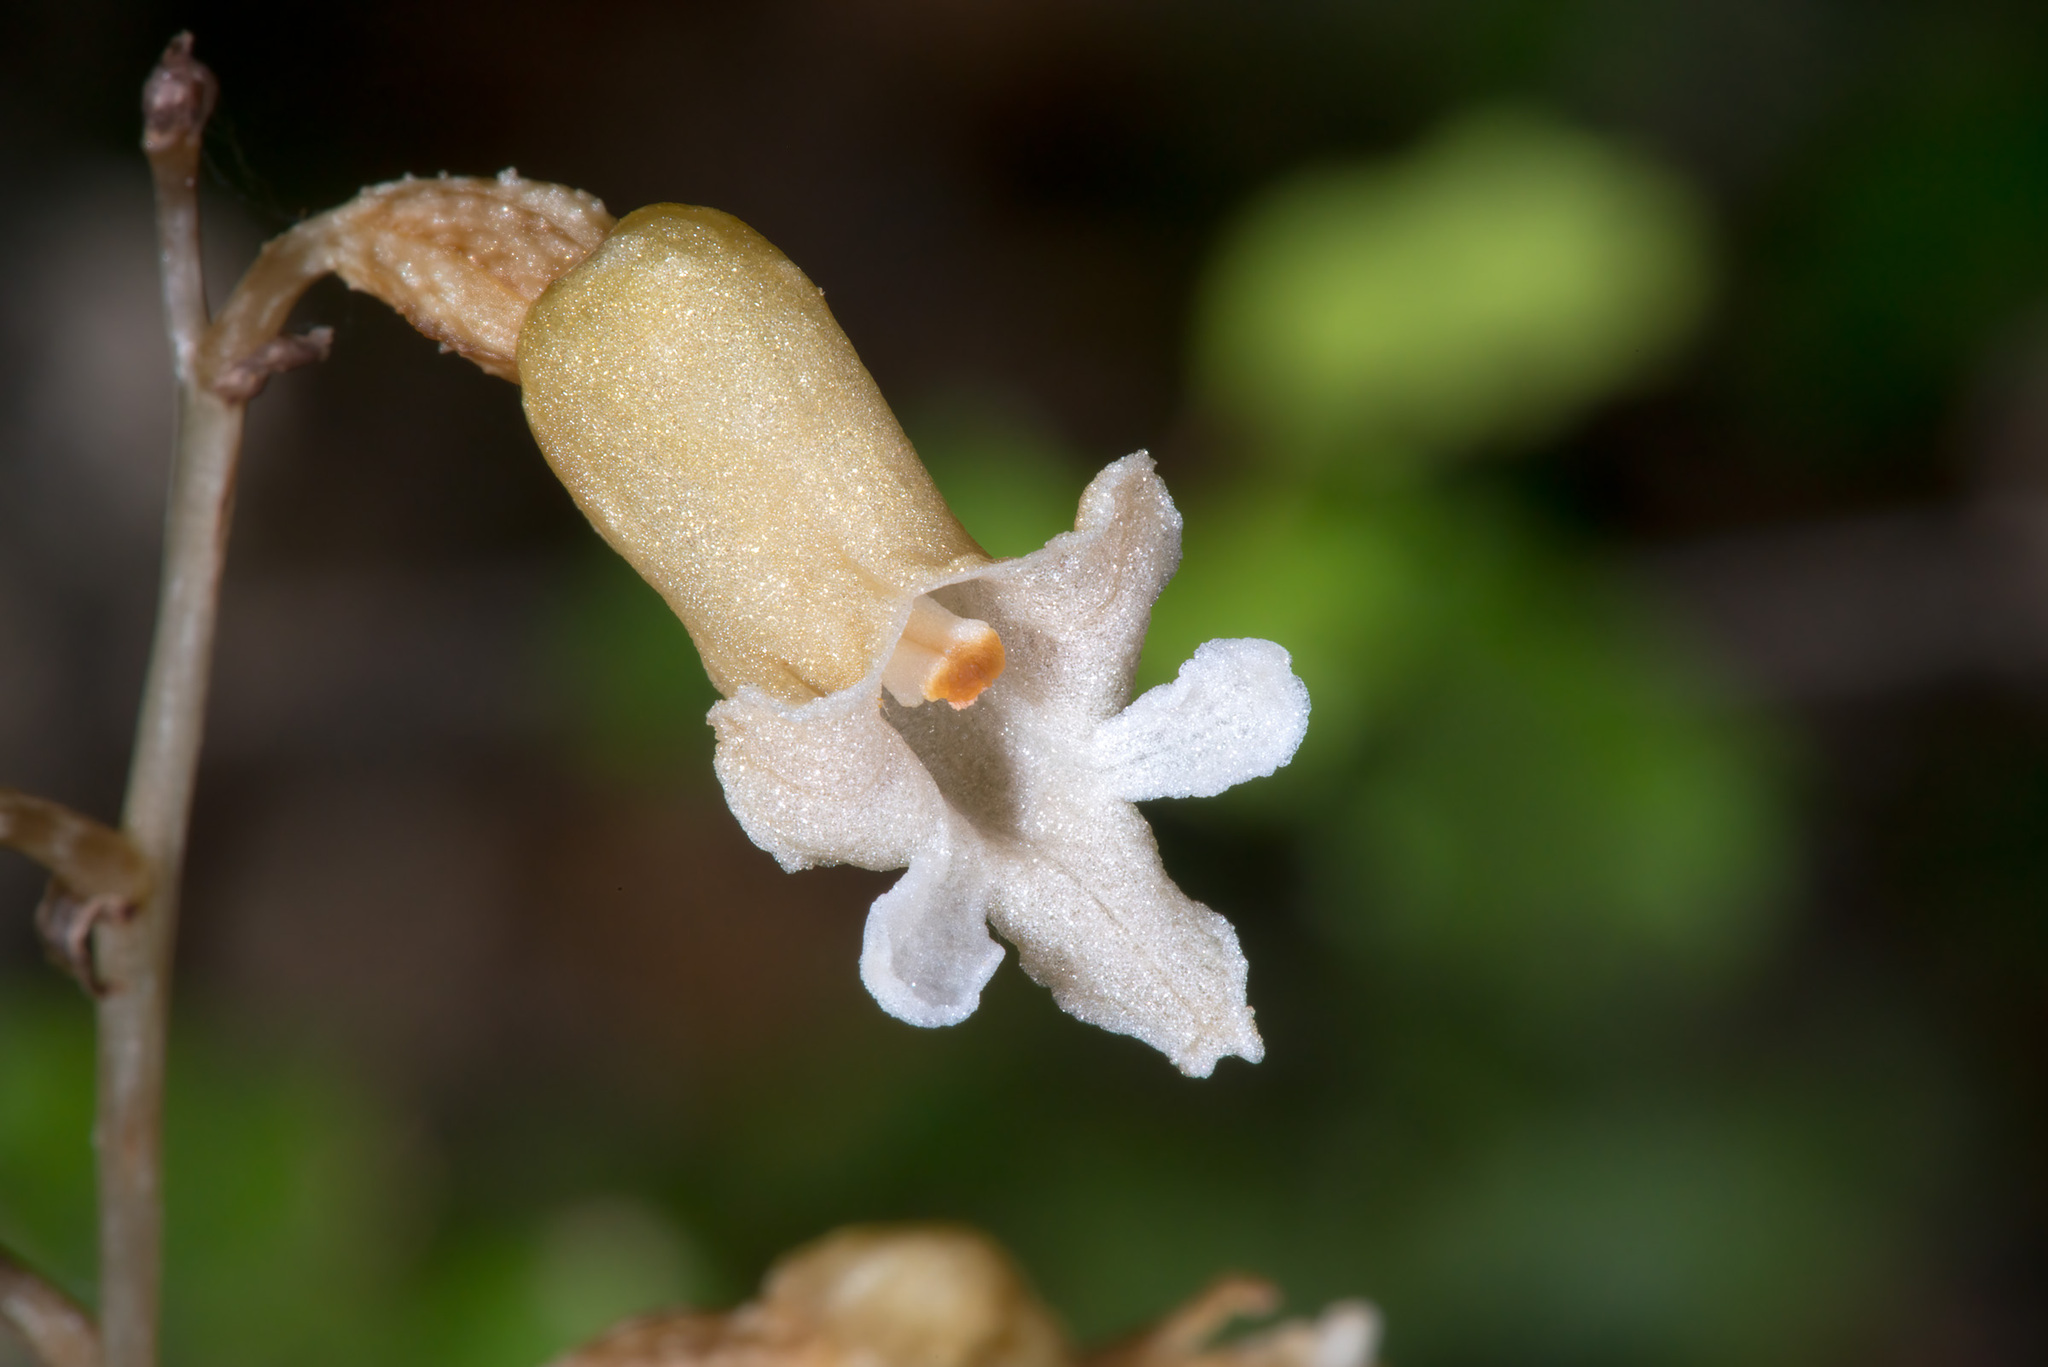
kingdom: Plantae
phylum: Tracheophyta
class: Liliopsida
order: Asparagales
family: Orchidaceae
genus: Gastrodia
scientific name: Gastrodia cunninghamii
